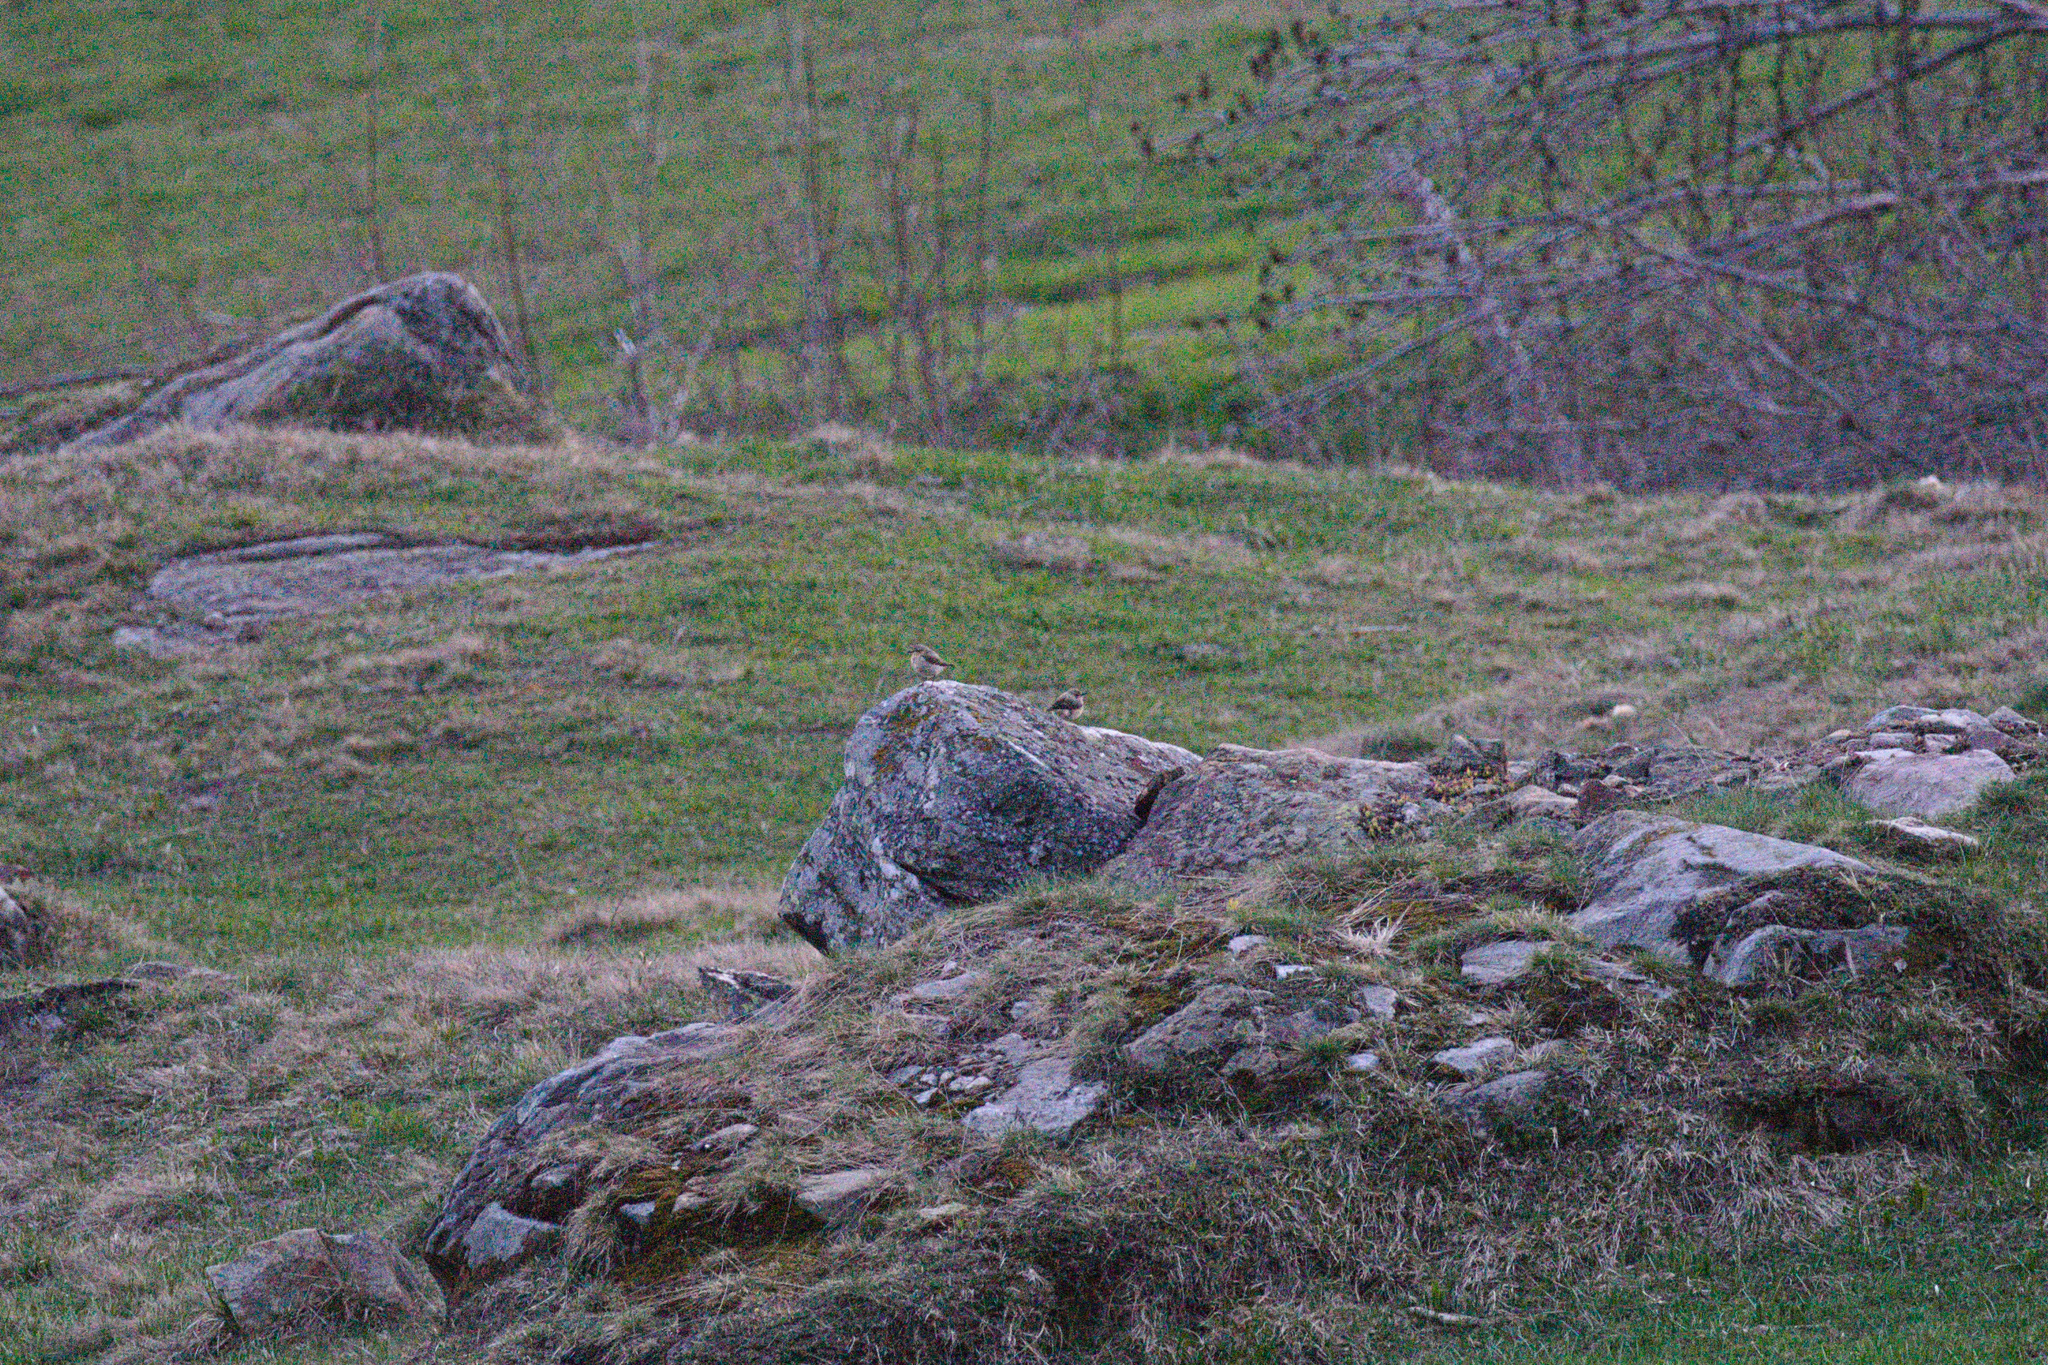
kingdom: Animalia
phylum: Chordata
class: Aves
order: Passeriformes
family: Muscicapidae
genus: Oenanthe
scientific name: Oenanthe oenanthe
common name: Northern wheatear
